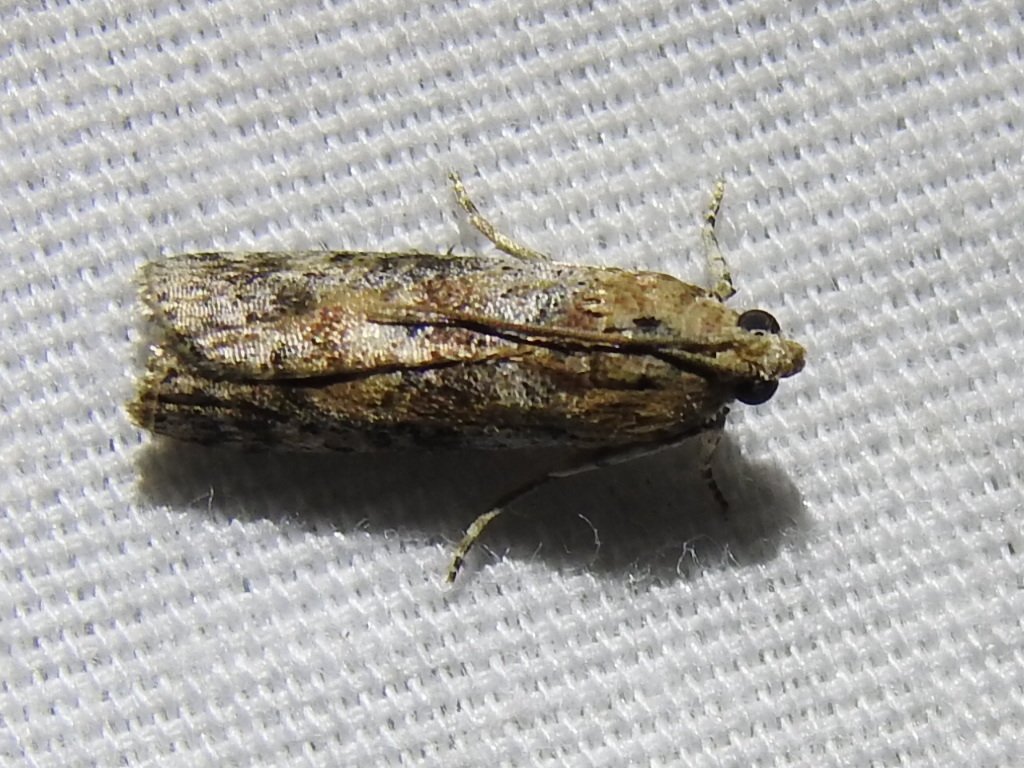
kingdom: Animalia
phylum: Arthropoda
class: Insecta
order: Lepidoptera
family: Pyralidae
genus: Sciota
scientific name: Sciota celtidella
